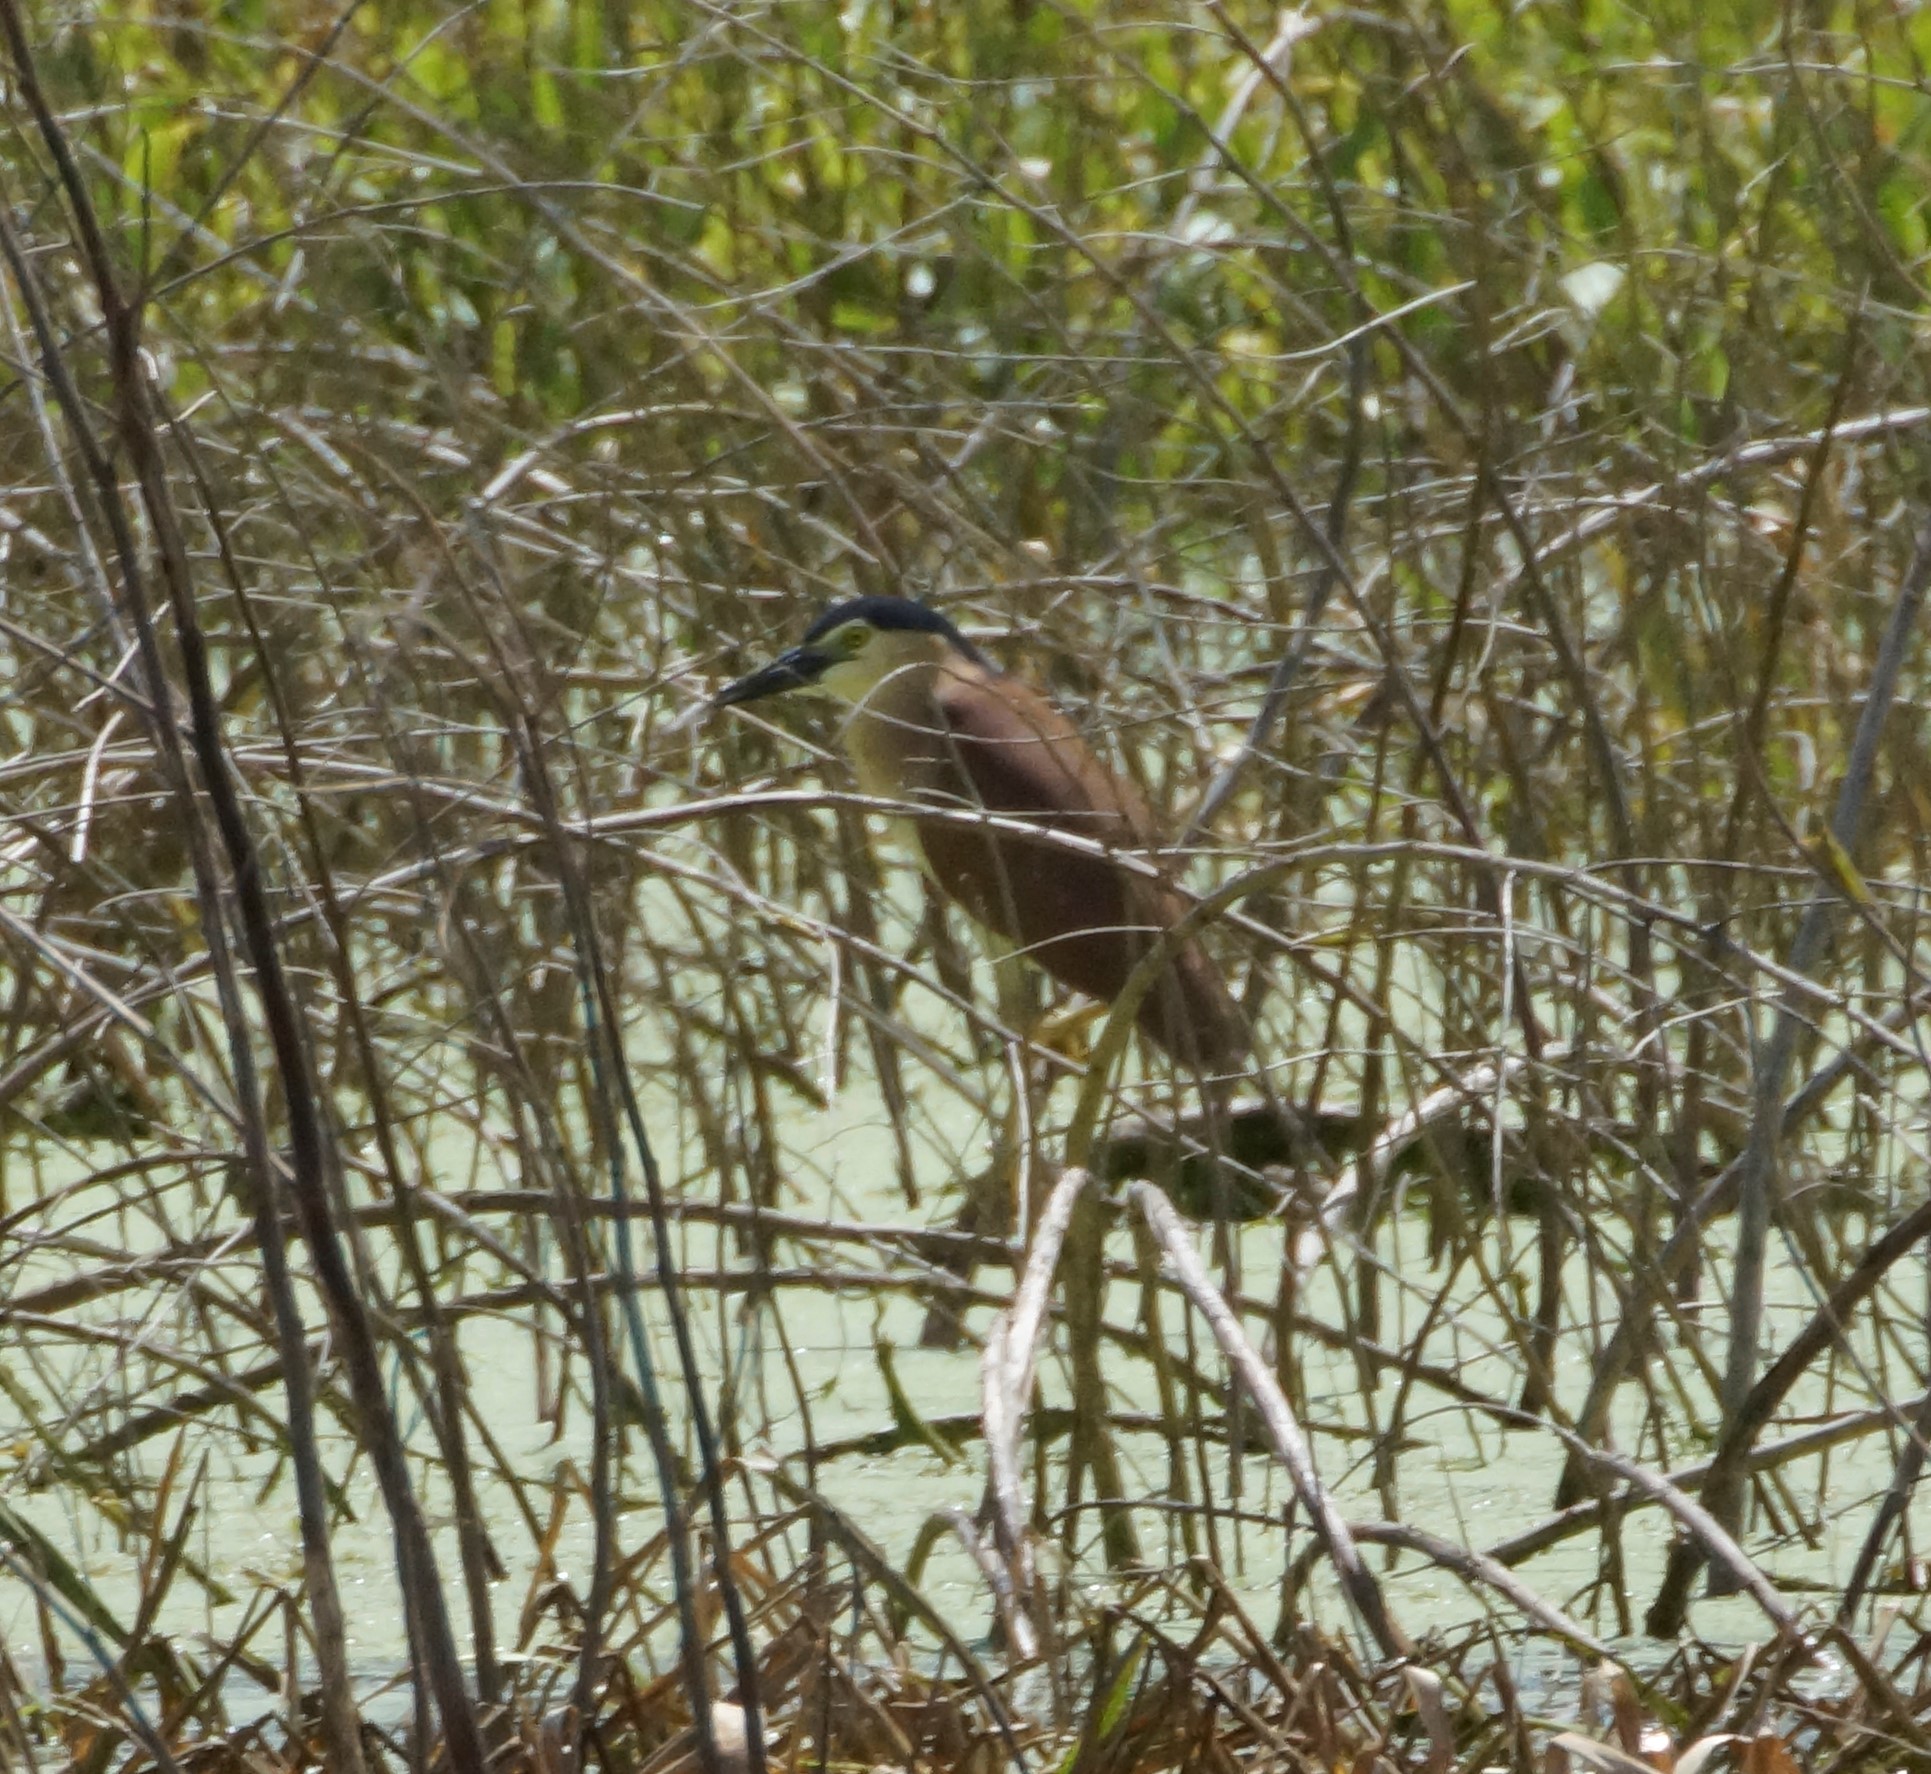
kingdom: Animalia
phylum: Chordata
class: Aves
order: Pelecaniformes
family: Ardeidae
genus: Nycticorax
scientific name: Nycticorax caledonicus
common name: Rufous night-heron
